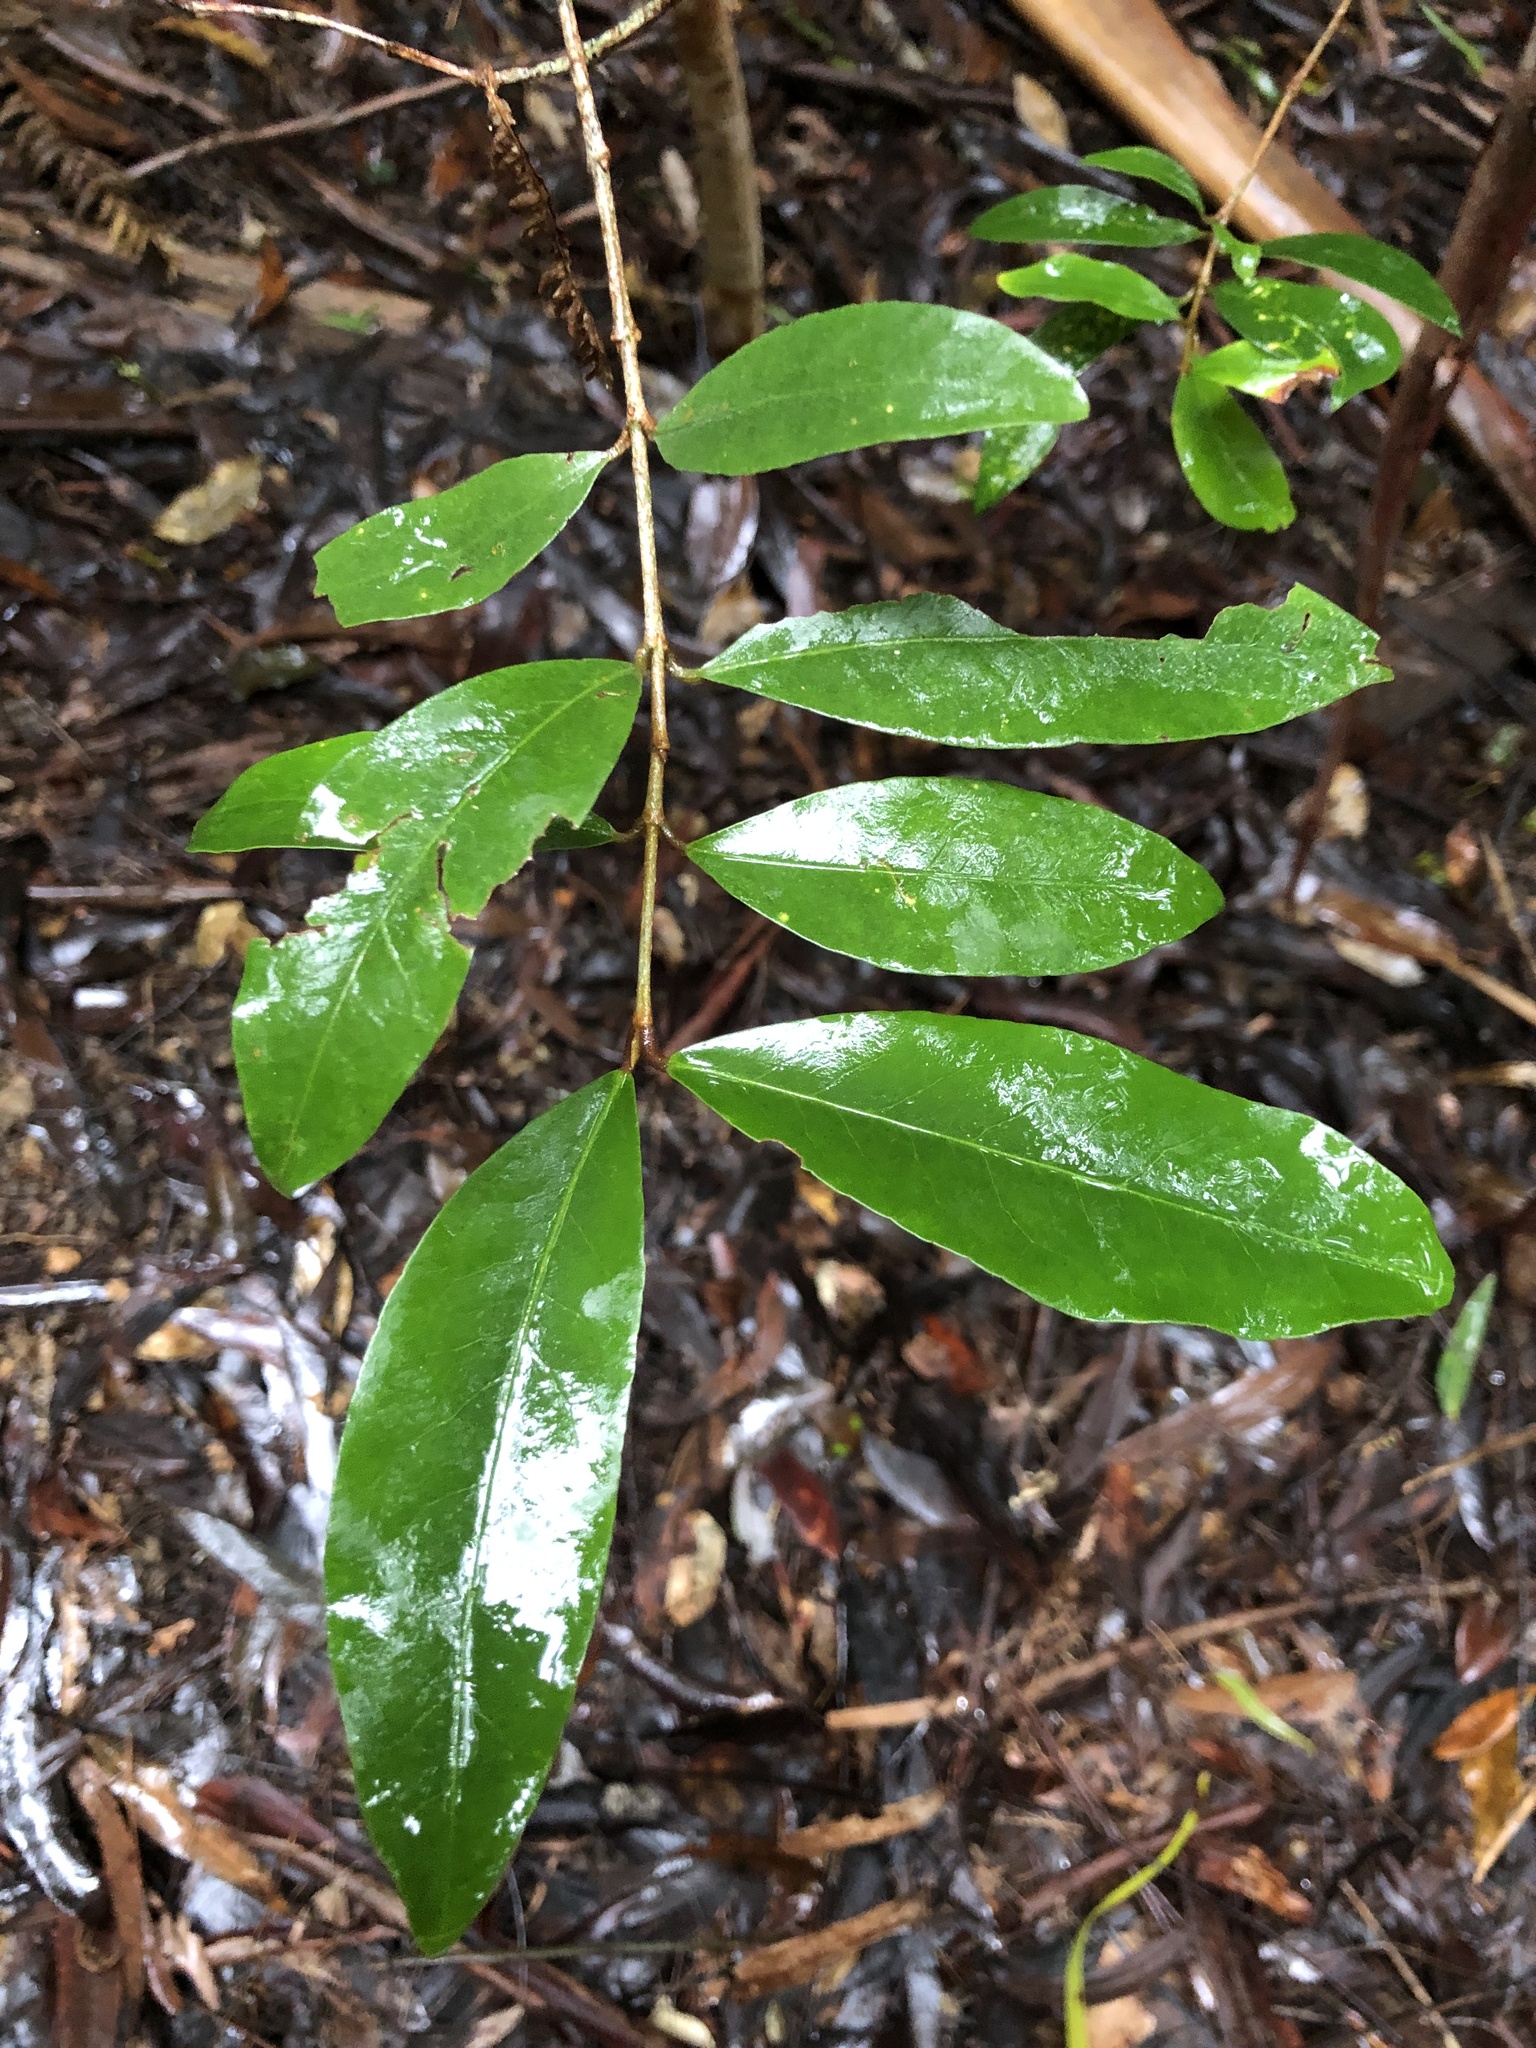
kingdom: Plantae
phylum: Tracheophyta
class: Magnoliopsida
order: Malpighiales
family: Picrodendraceae
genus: Austrobuxus
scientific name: Austrobuxus swainii
